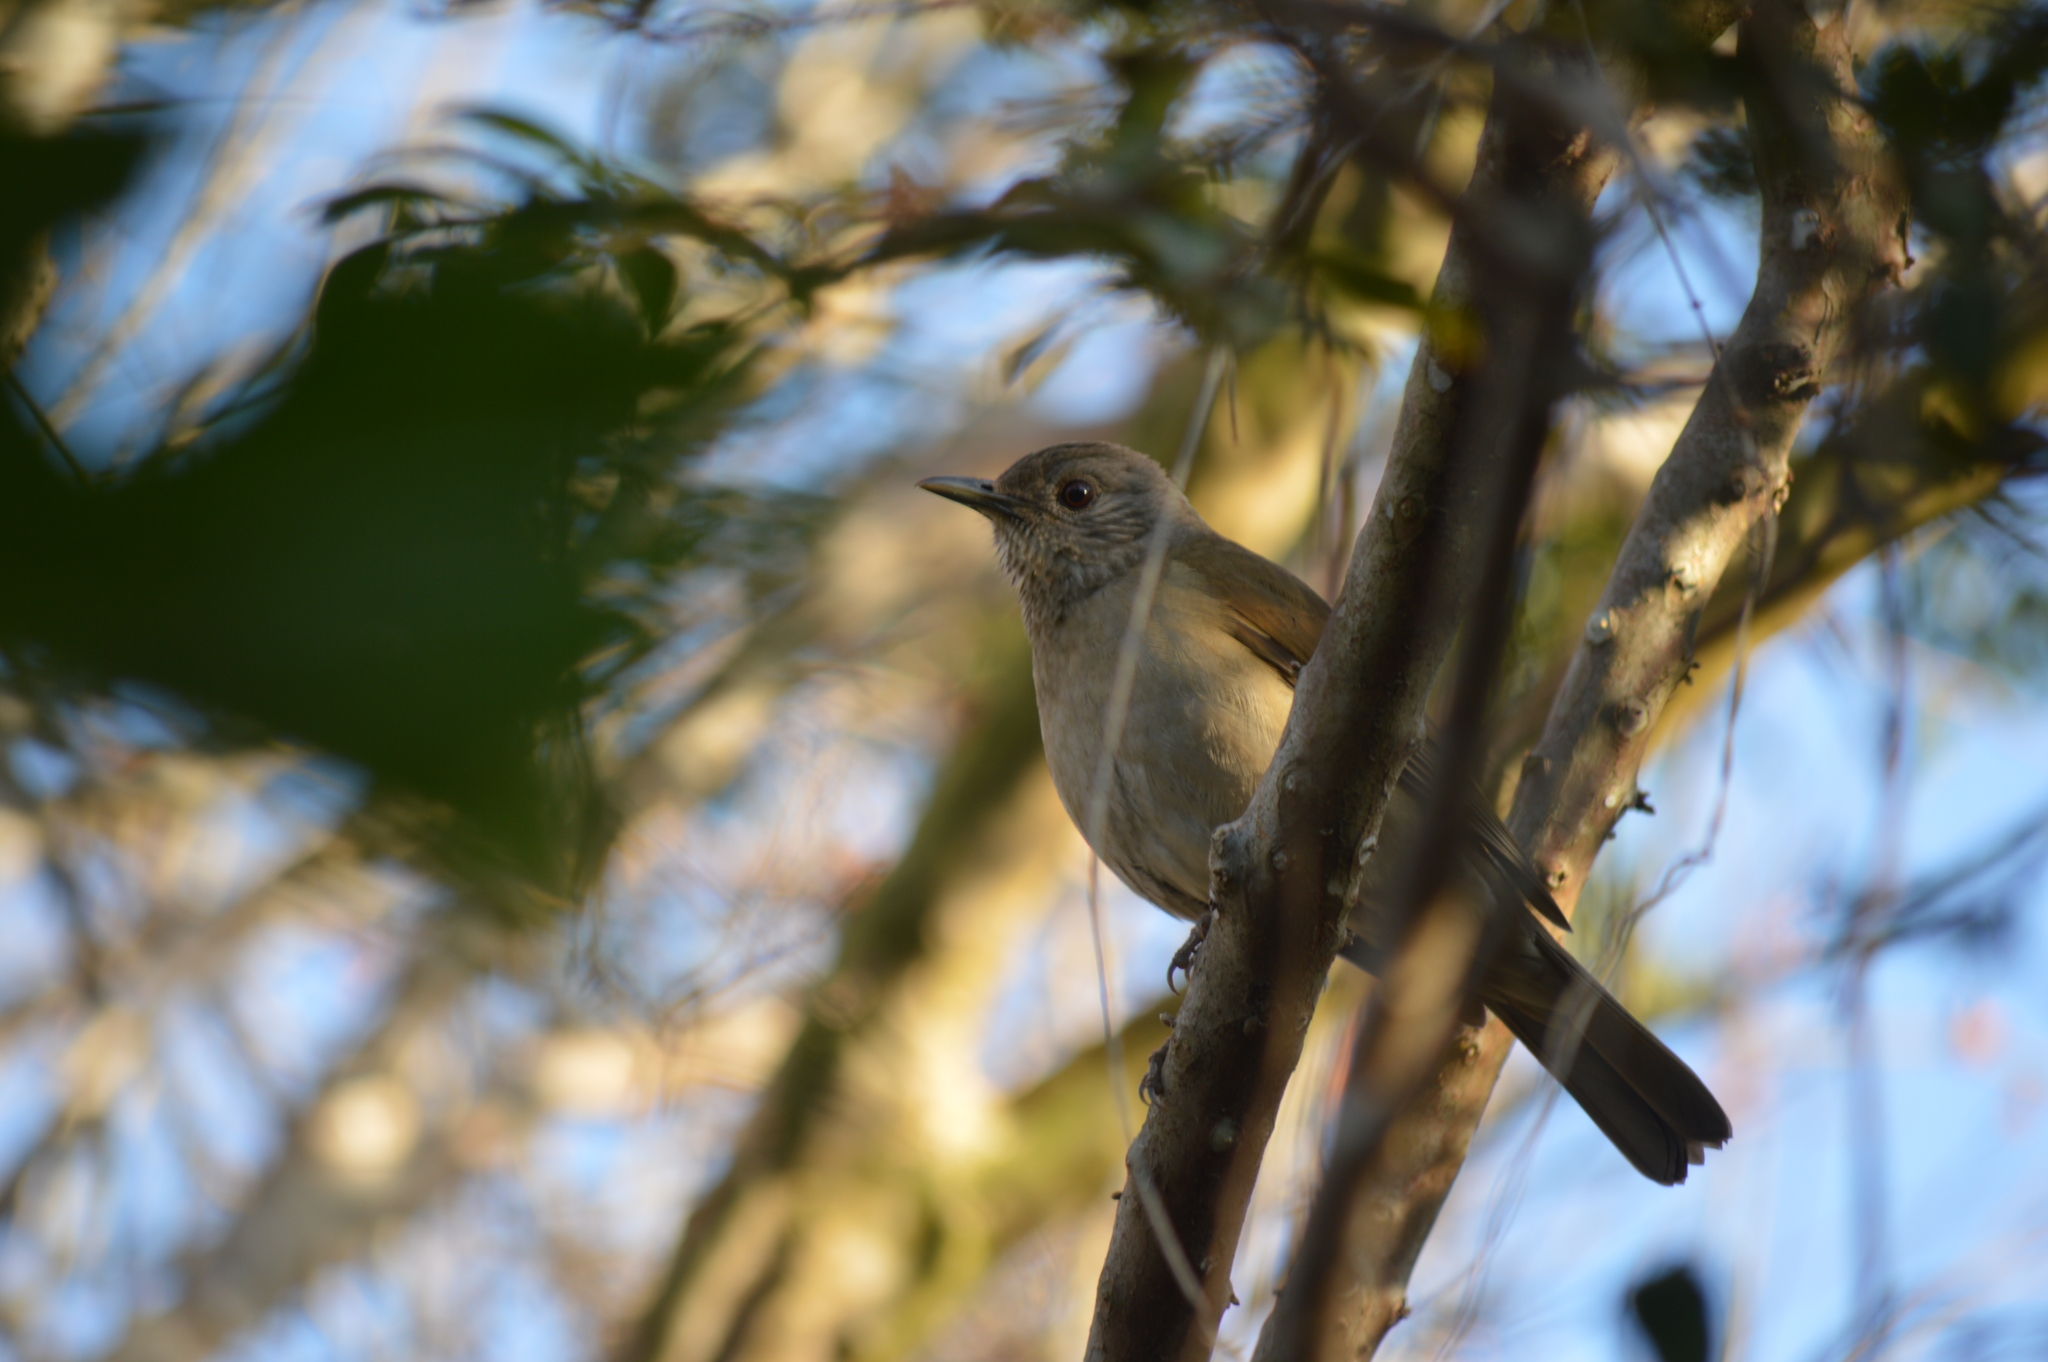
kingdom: Animalia
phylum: Chordata
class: Aves
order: Passeriformes
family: Turdidae
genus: Turdus
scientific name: Turdus leucomelas
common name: Pale-breasted thrush
